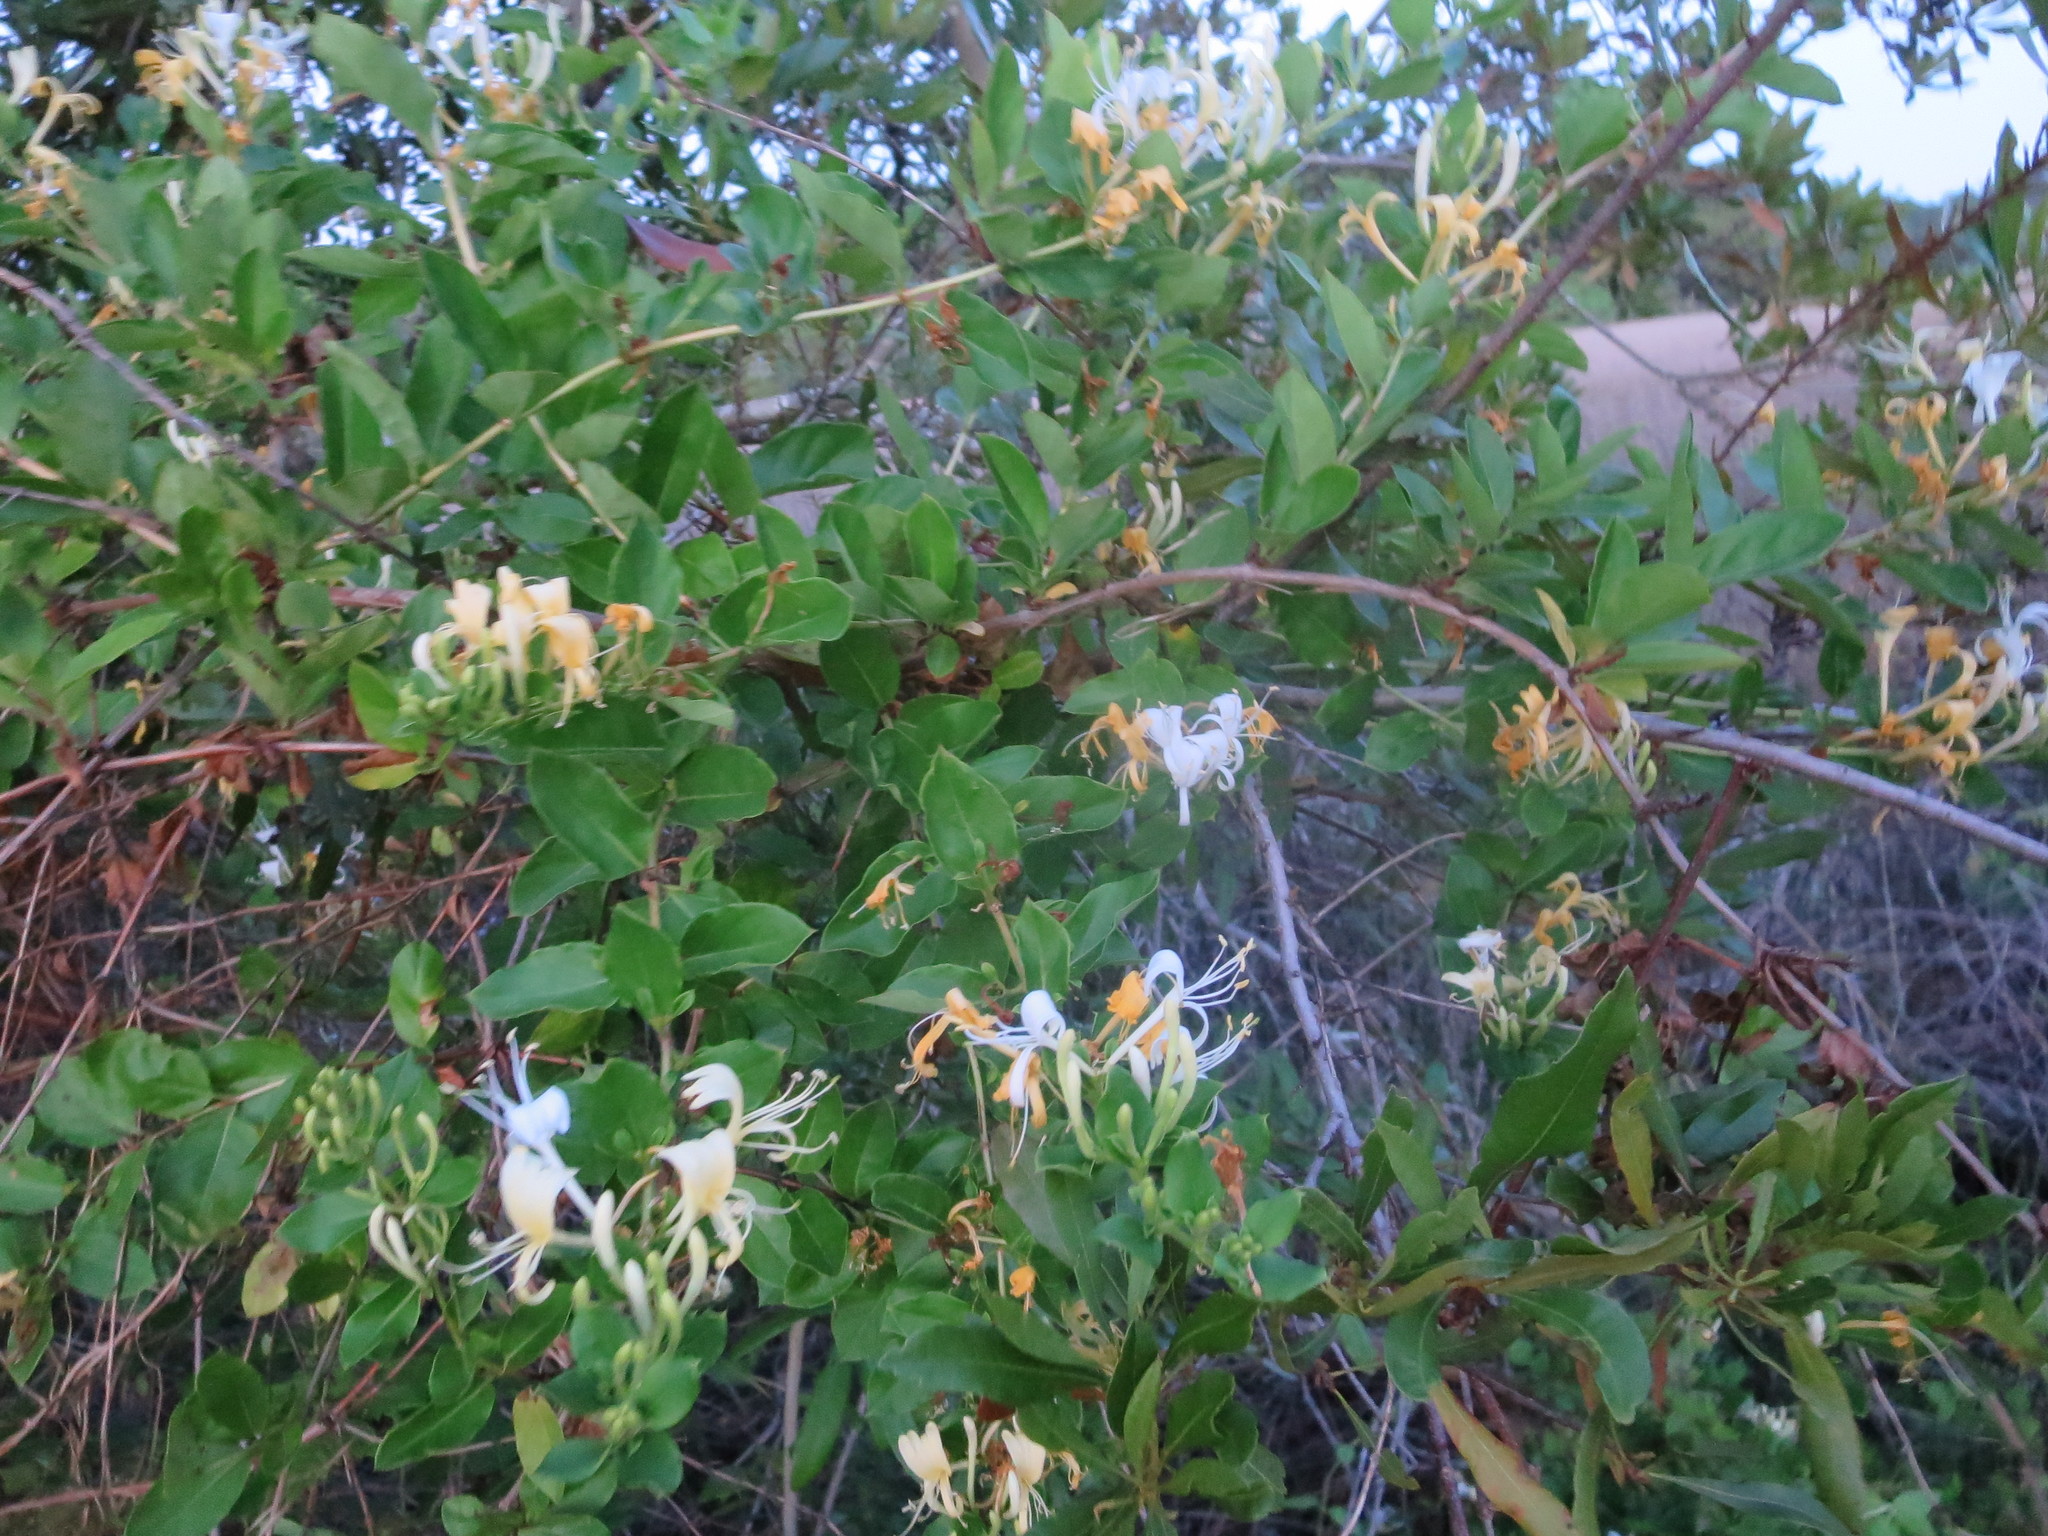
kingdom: Plantae
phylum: Tracheophyta
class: Magnoliopsida
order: Dipsacales
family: Caprifoliaceae
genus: Lonicera
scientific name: Lonicera japonica
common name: Japanese honeysuckle
